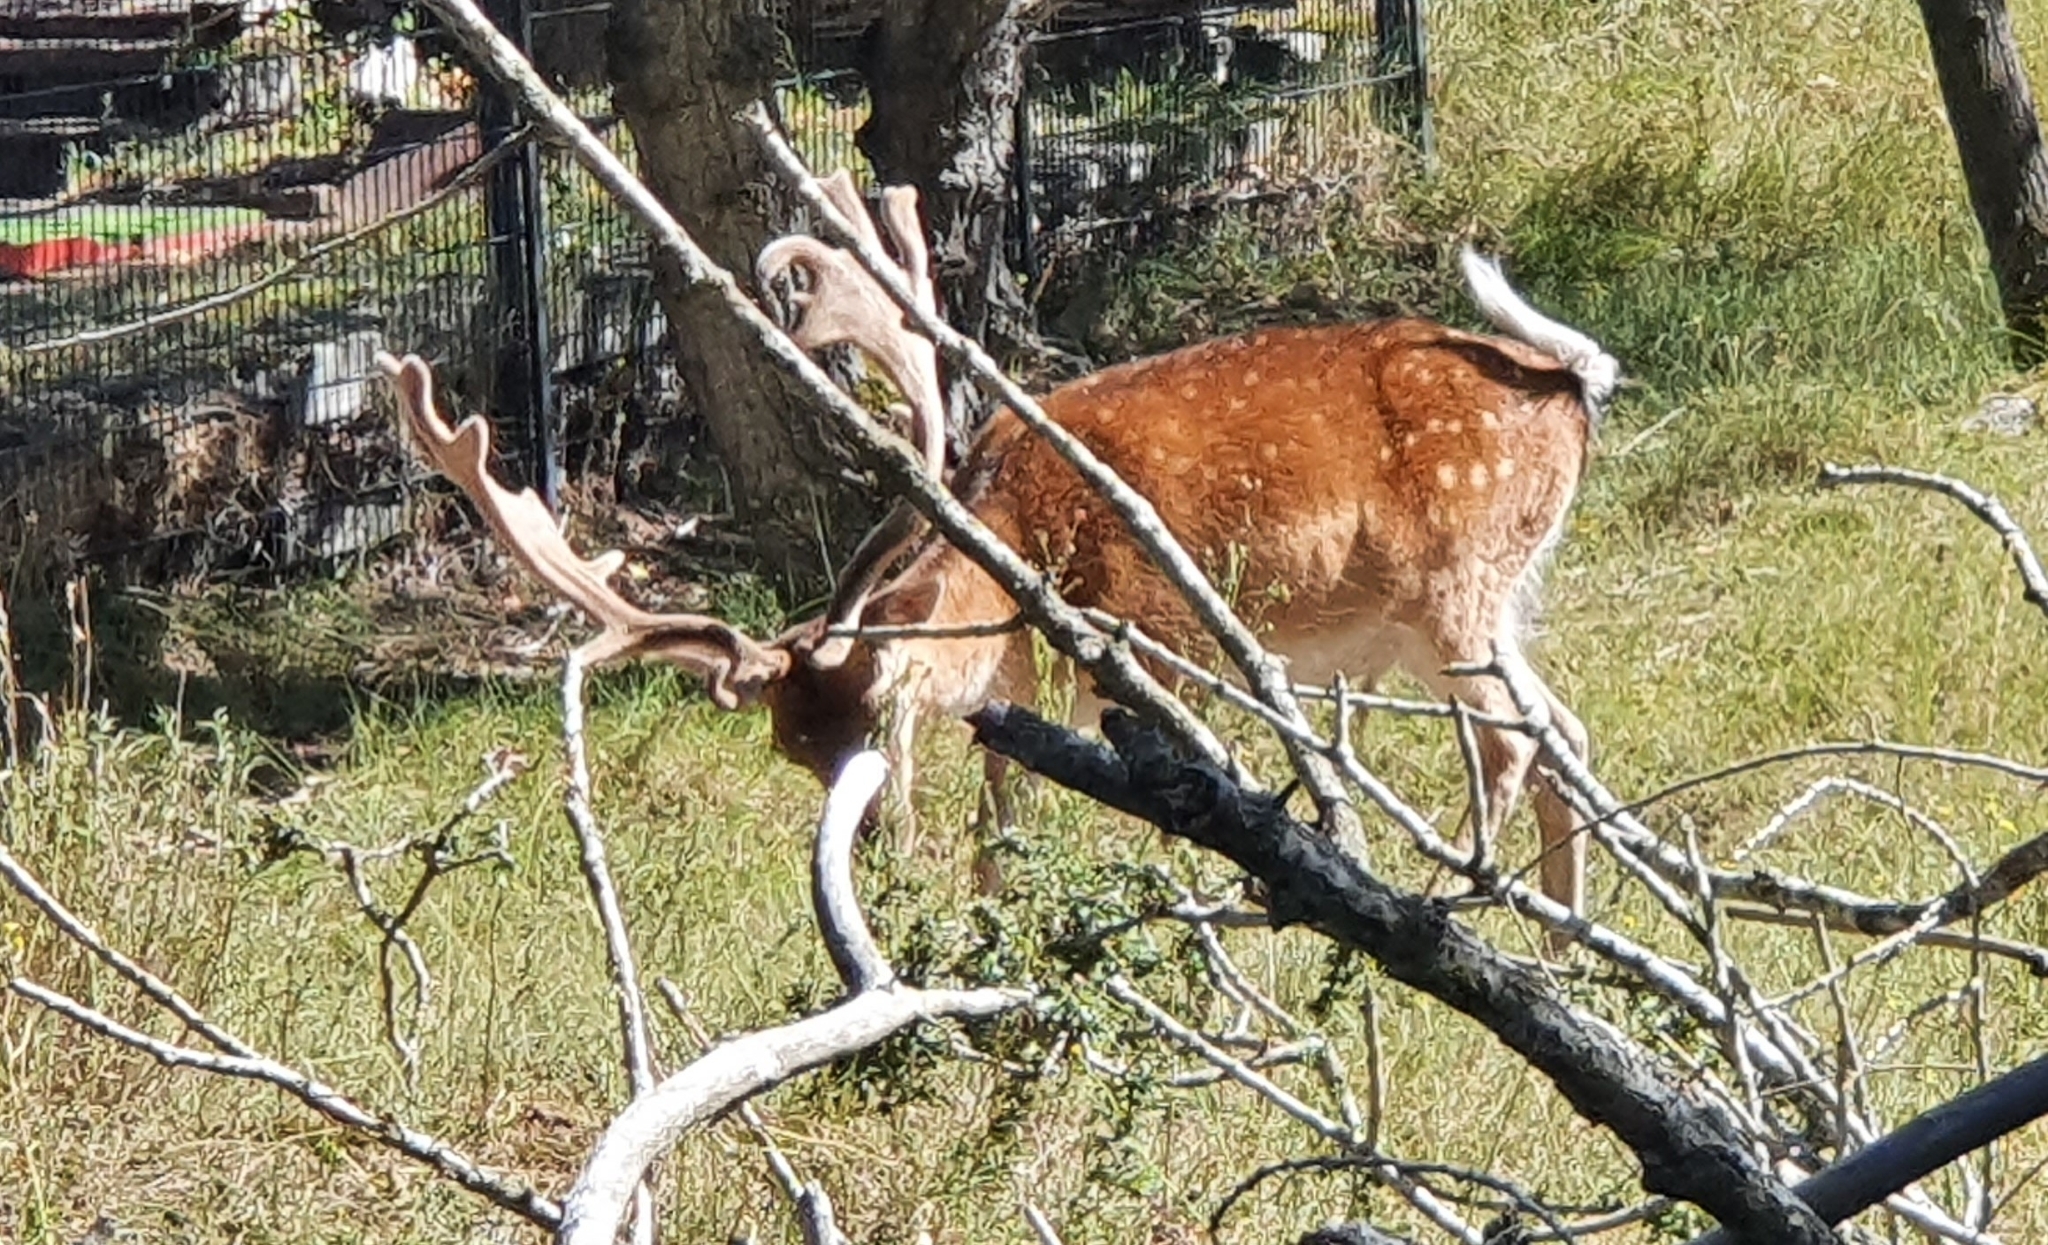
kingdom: Animalia
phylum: Chordata
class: Mammalia
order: Artiodactyla
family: Cervidae
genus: Dama
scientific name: Dama dama
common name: Fallow deer
